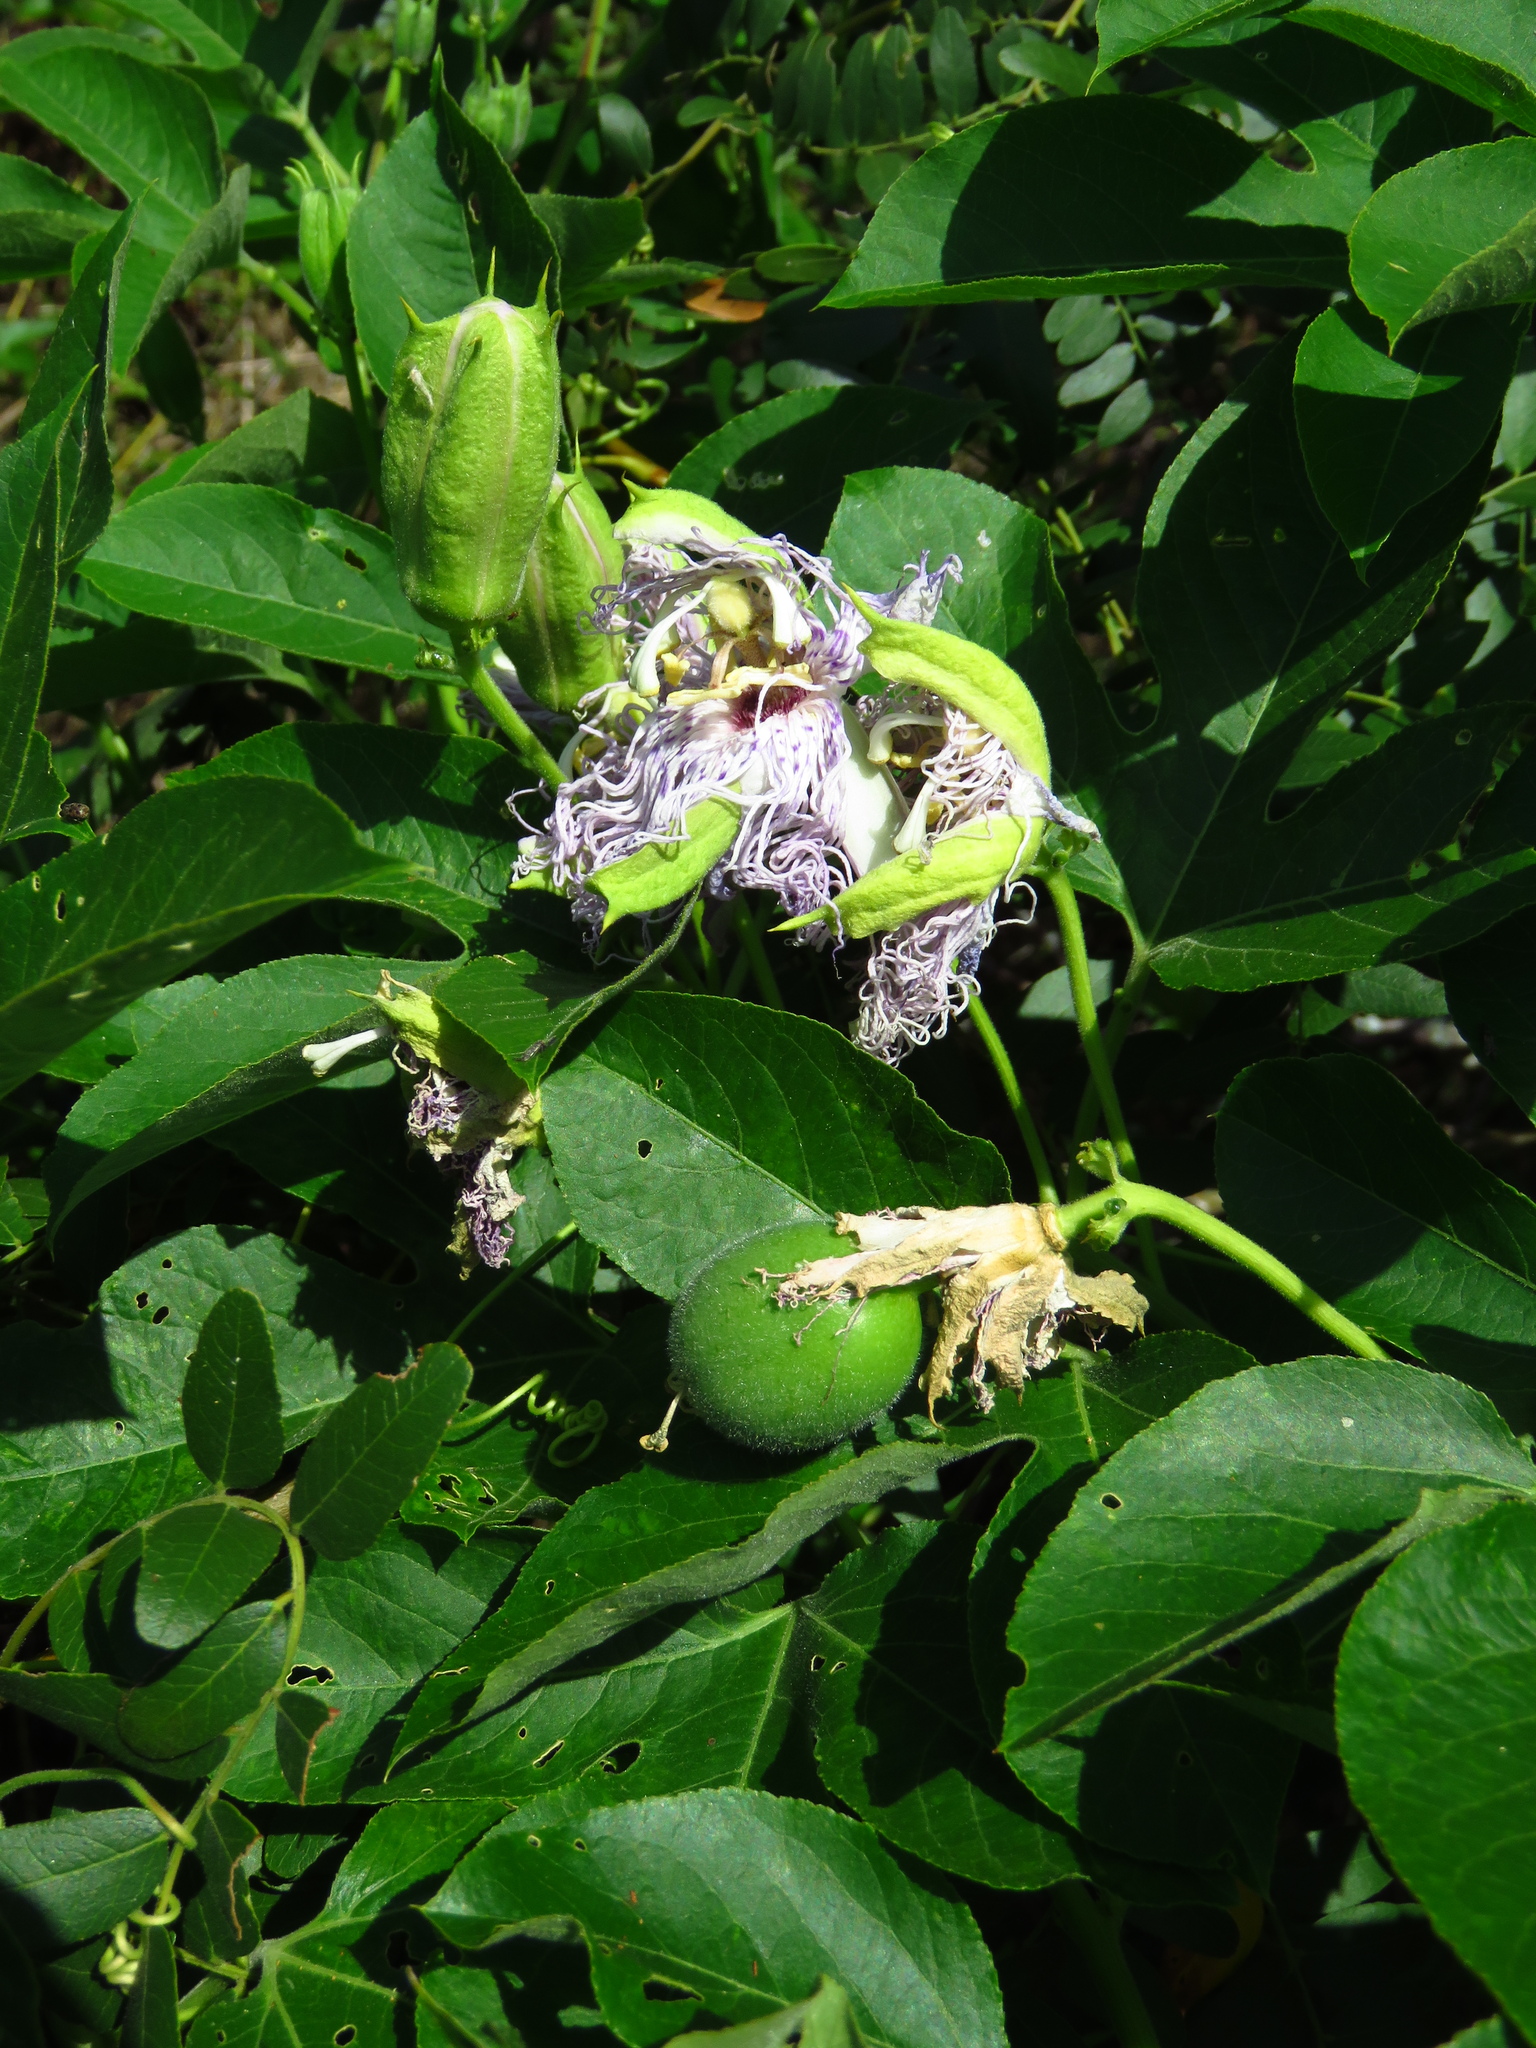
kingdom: Plantae
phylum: Tracheophyta
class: Magnoliopsida
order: Malpighiales
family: Passifloraceae
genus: Passiflora
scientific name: Passiflora incarnata
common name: Apricot-vine
